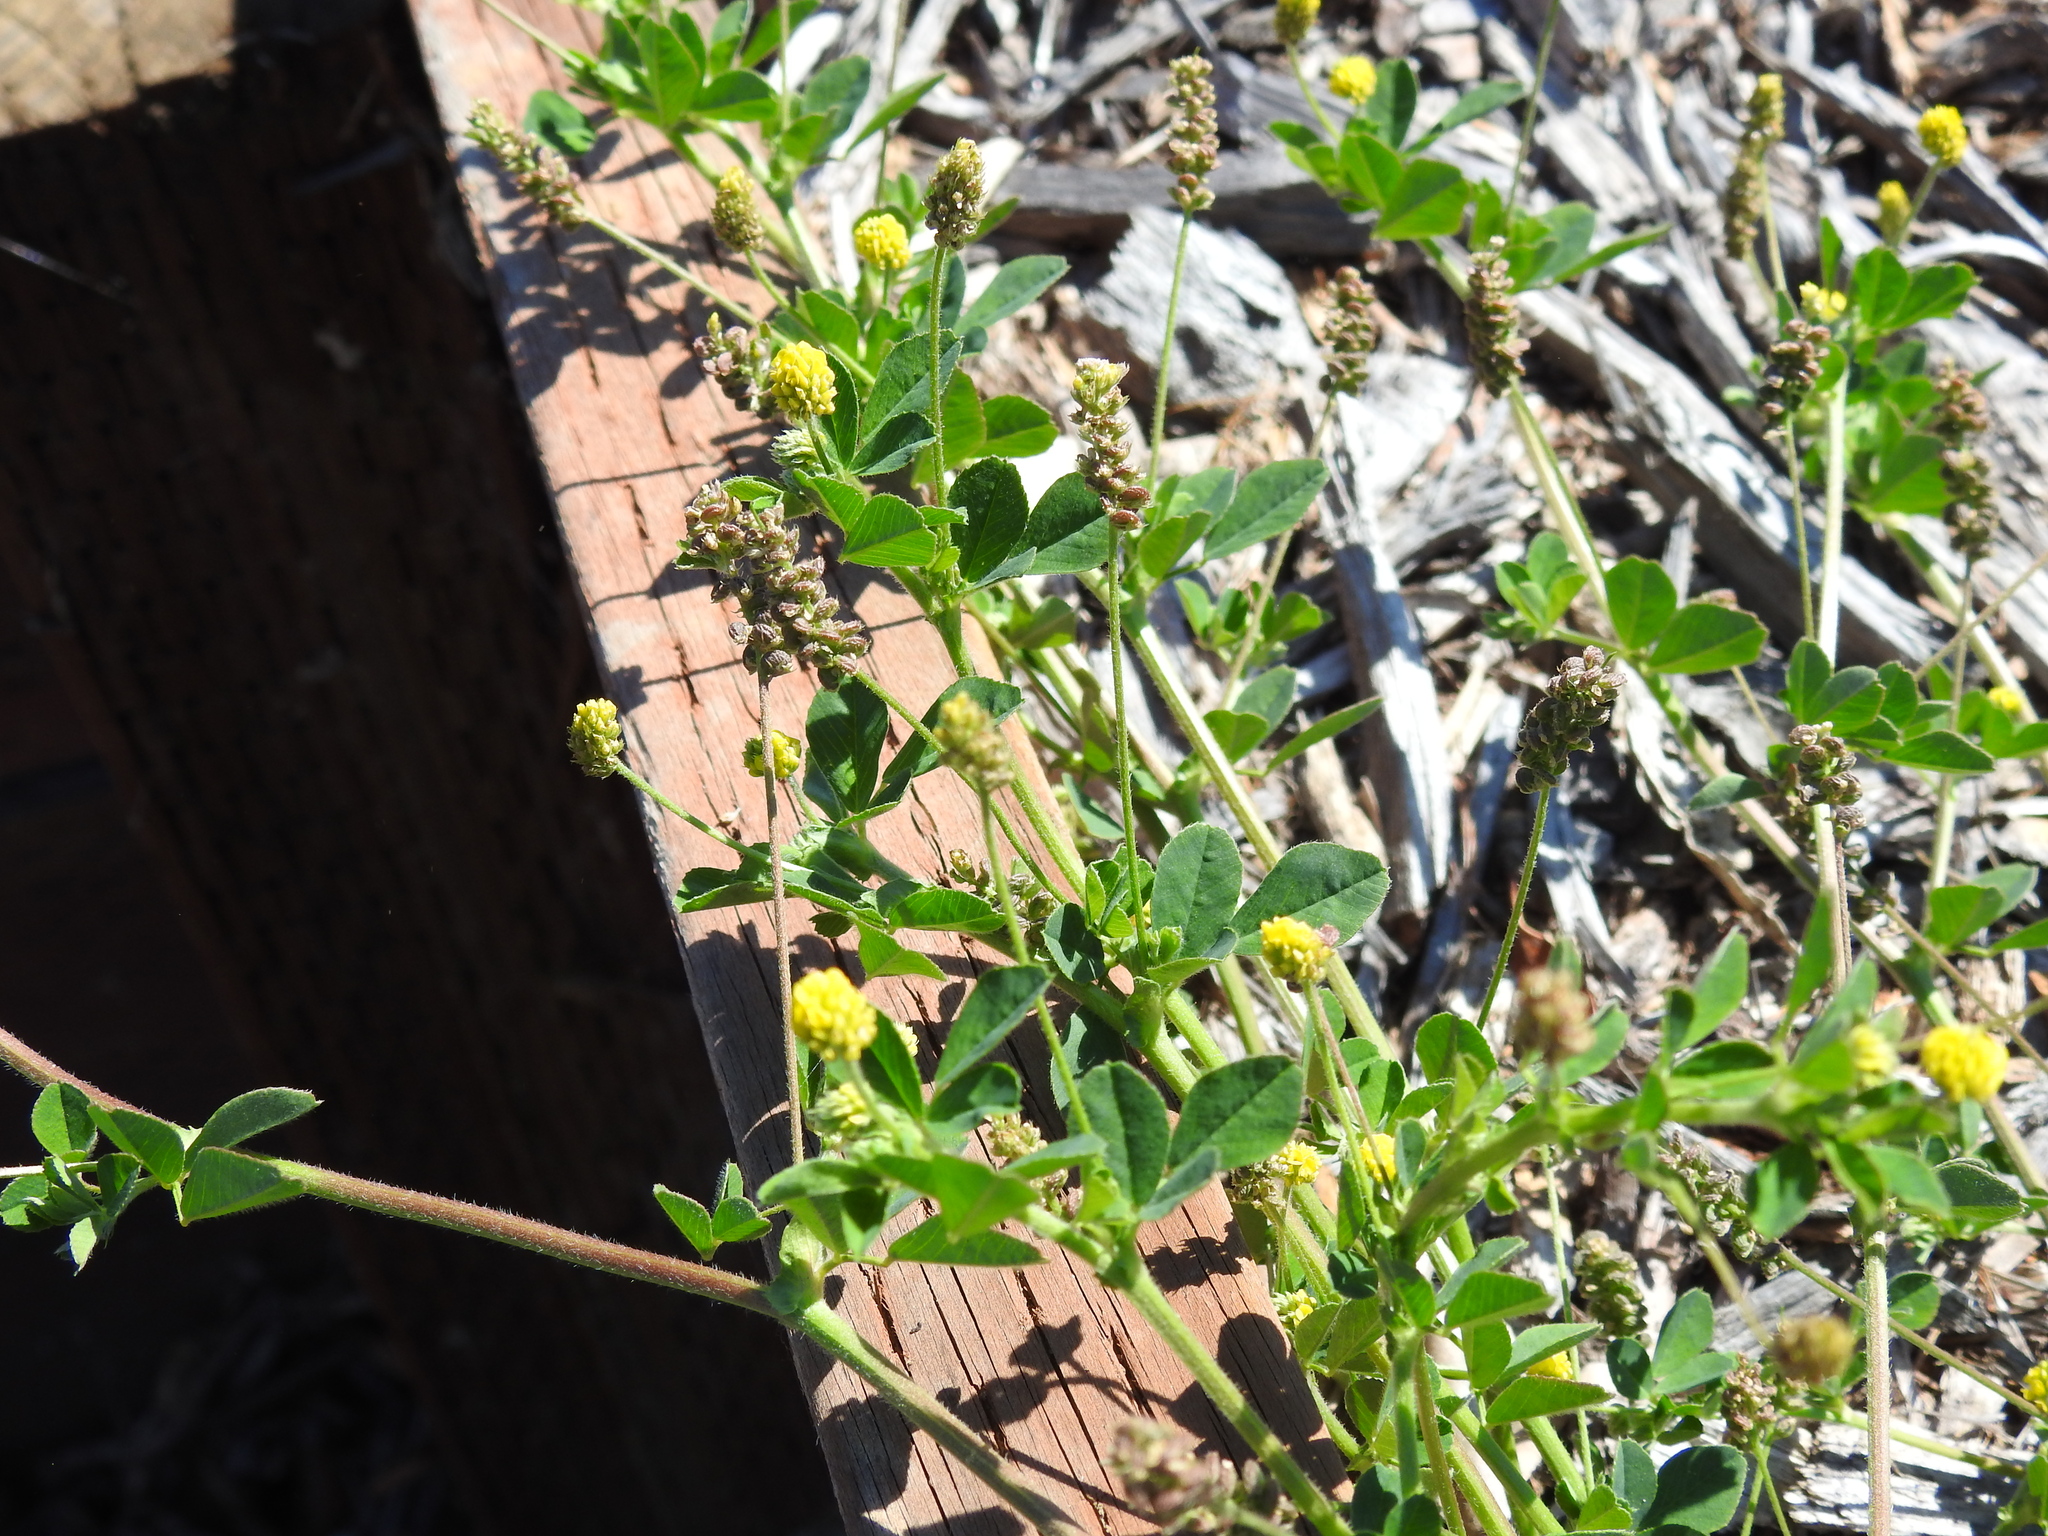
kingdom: Plantae
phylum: Tracheophyta
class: Magnoliopsida
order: Fabales
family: Fabaceae
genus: Medicago
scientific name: Medicago lupulina
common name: Black medick
